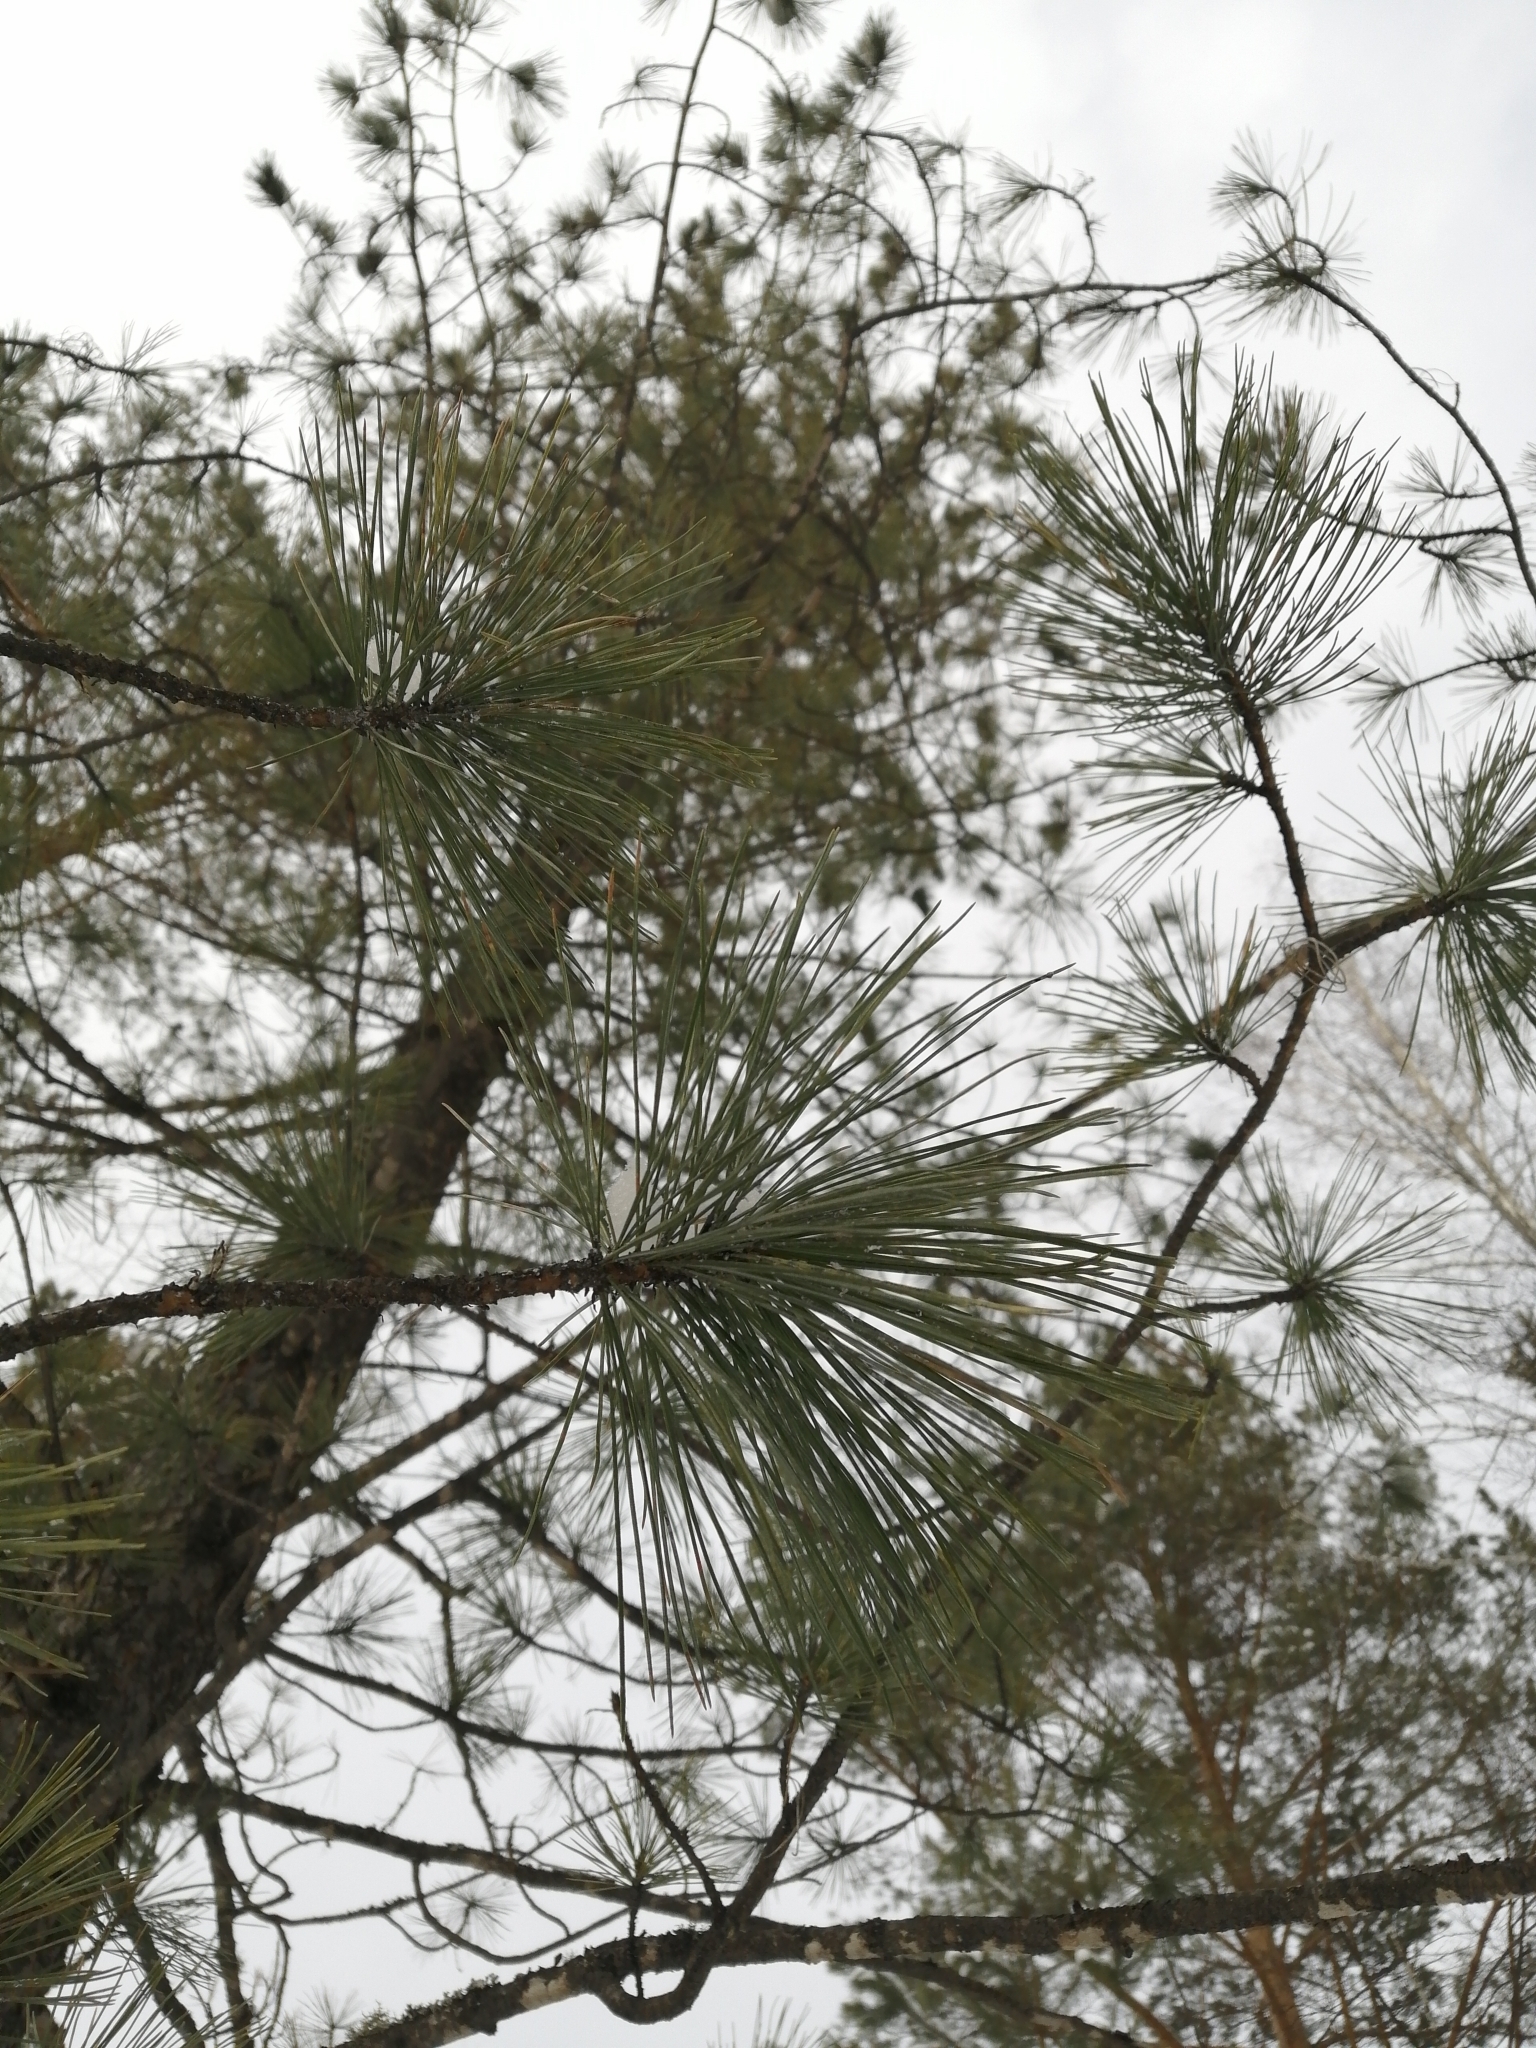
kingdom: Plantae
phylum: Tracheophyta
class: Pinopsida
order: Pinales
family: Pinaceae
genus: Pinus
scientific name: Pinus sibirica
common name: Siberian pine
